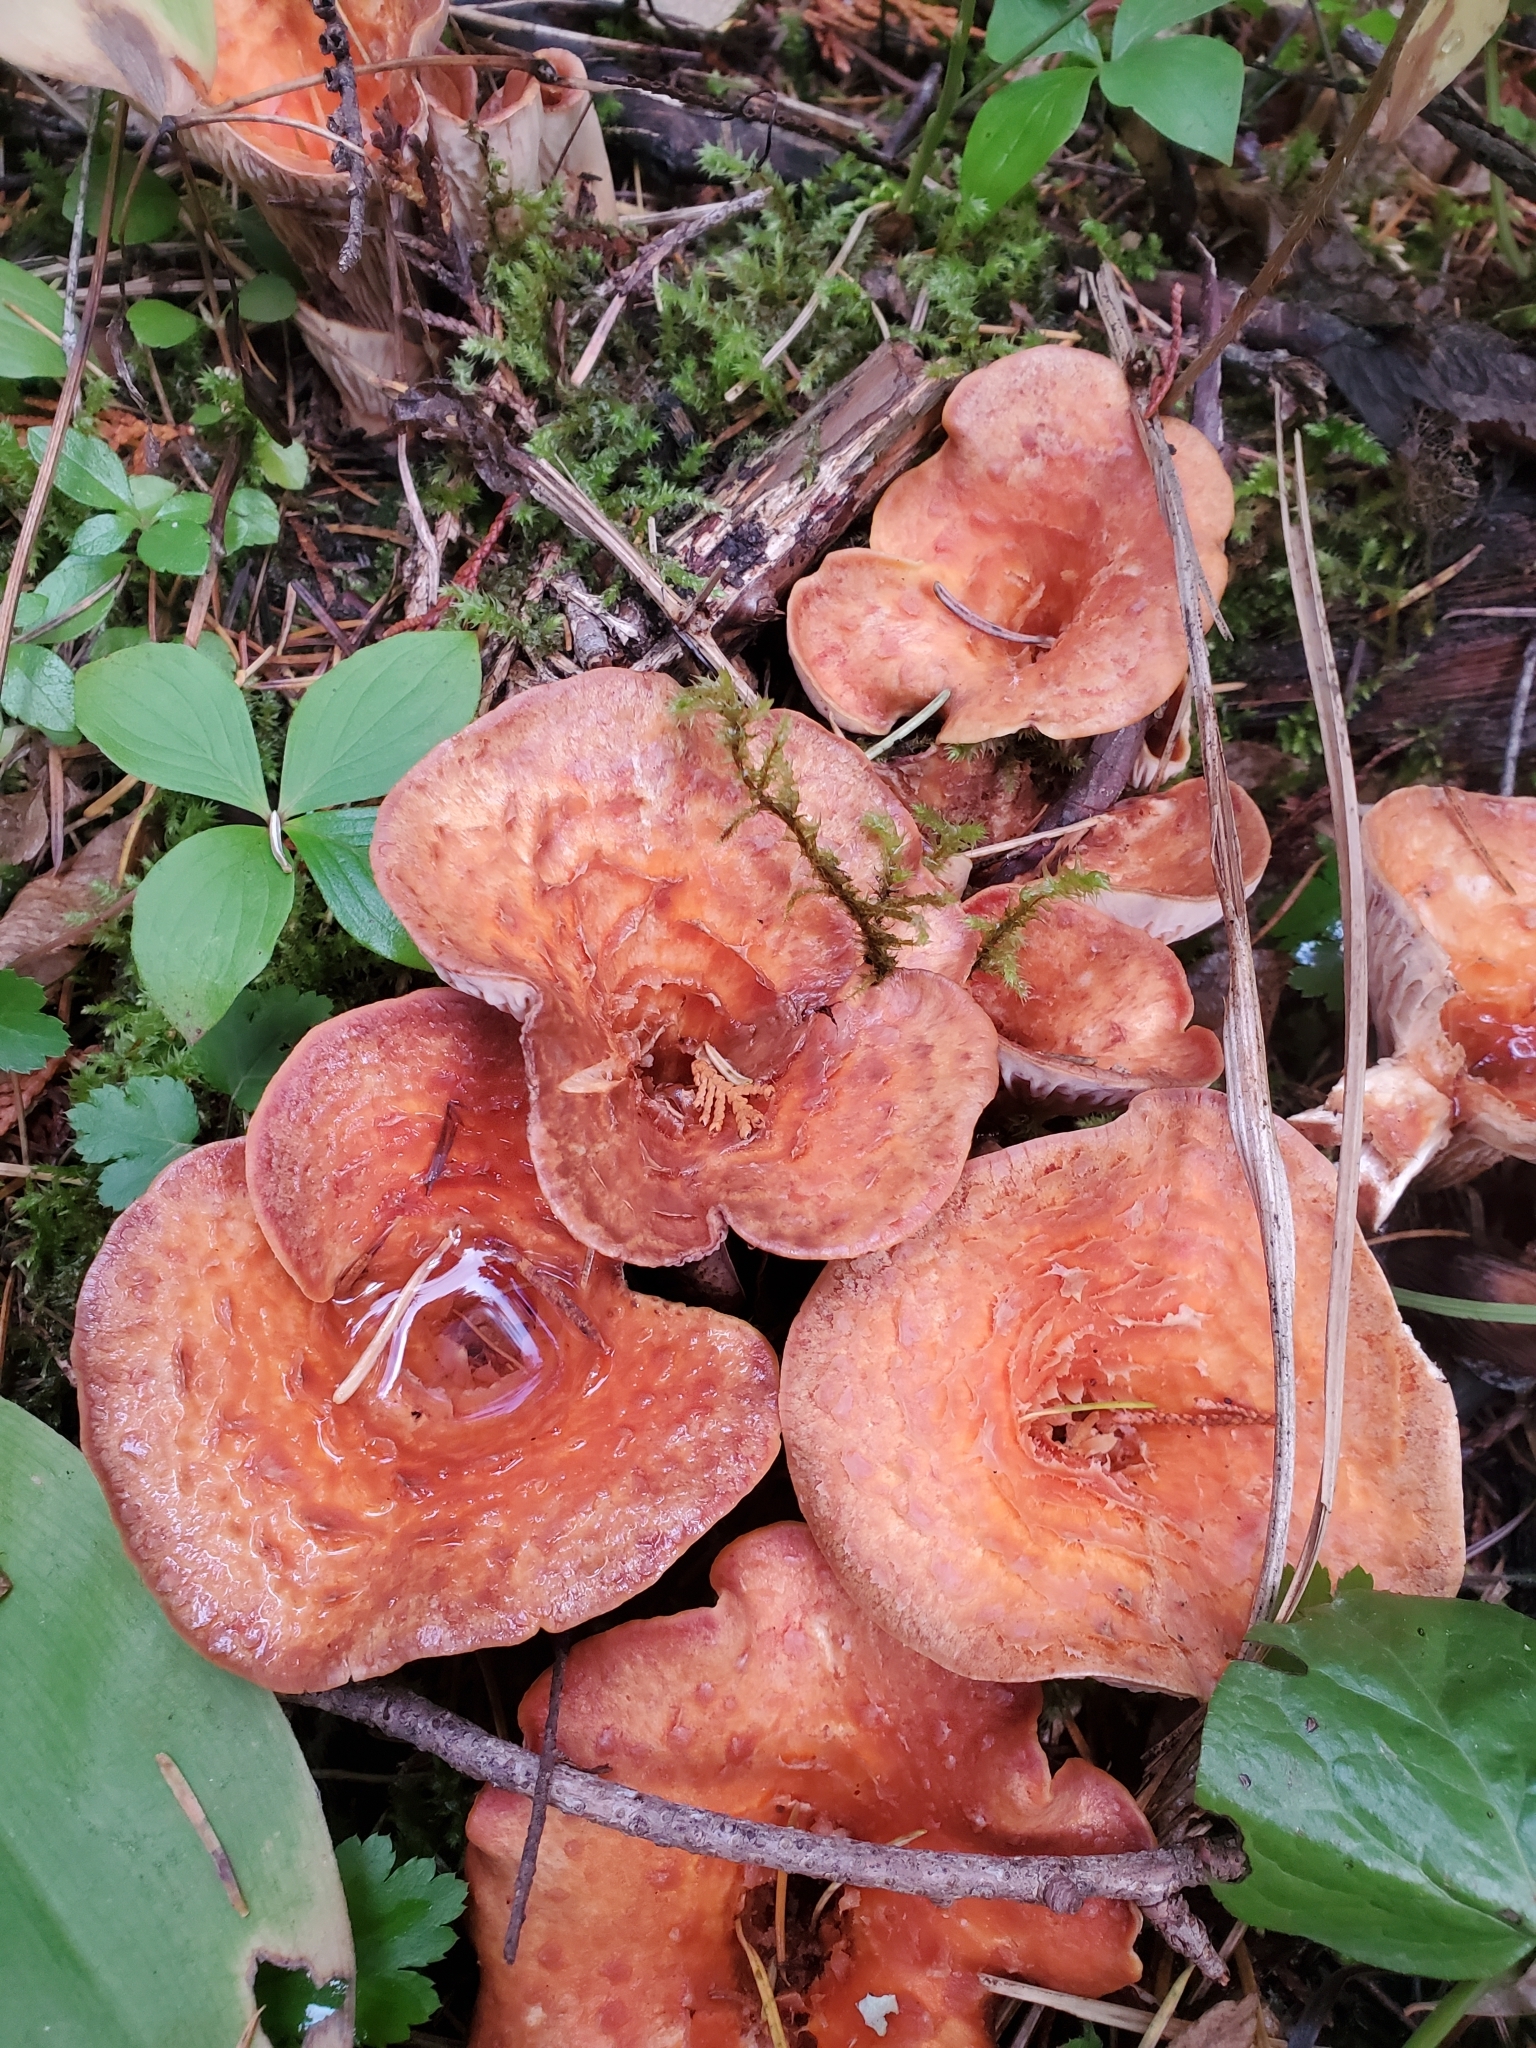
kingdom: Fungi
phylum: Basidiomycota
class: Agaricomycetes
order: Gomphales
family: Gomphaceae
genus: Turbinellus
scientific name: Turbinellus floccosus
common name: Scaly chanterelle
